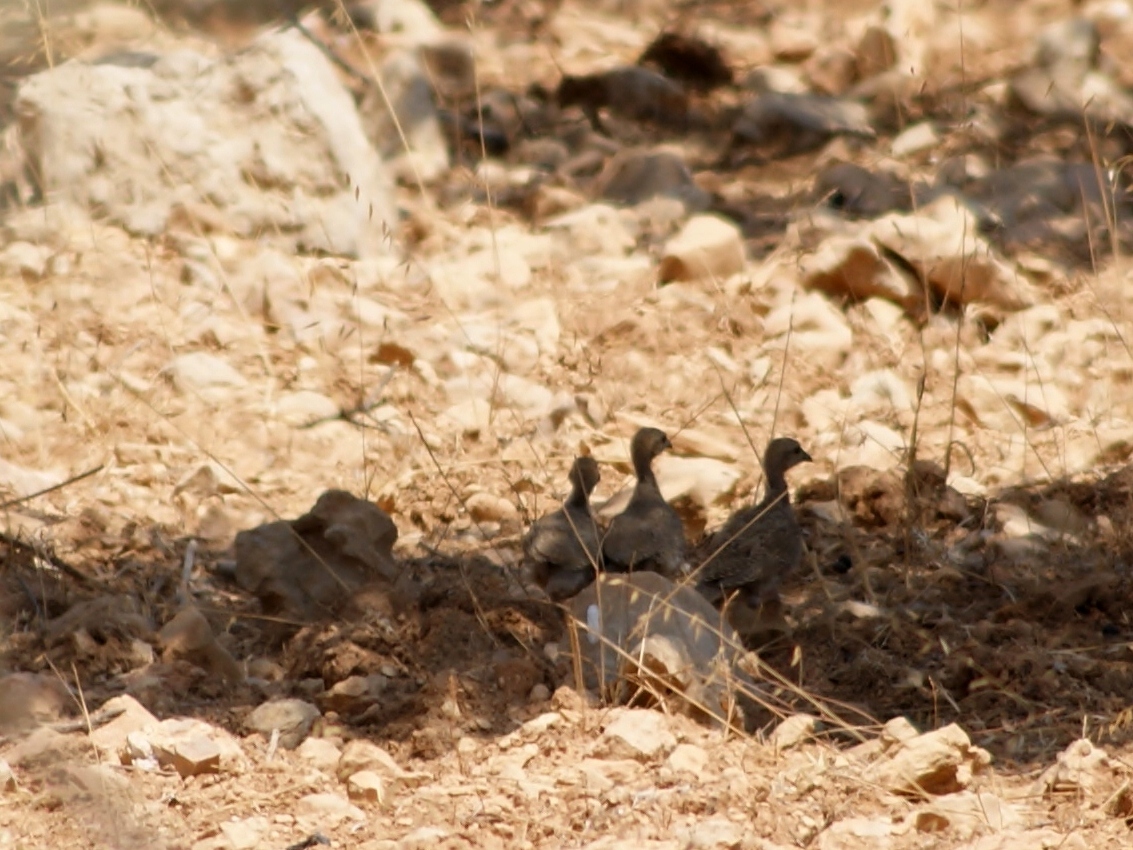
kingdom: Animalia
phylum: Chordata
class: Aves
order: Galliformes
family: Phasianidae
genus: Alectoris
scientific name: Alectoris chukar
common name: Chukar
